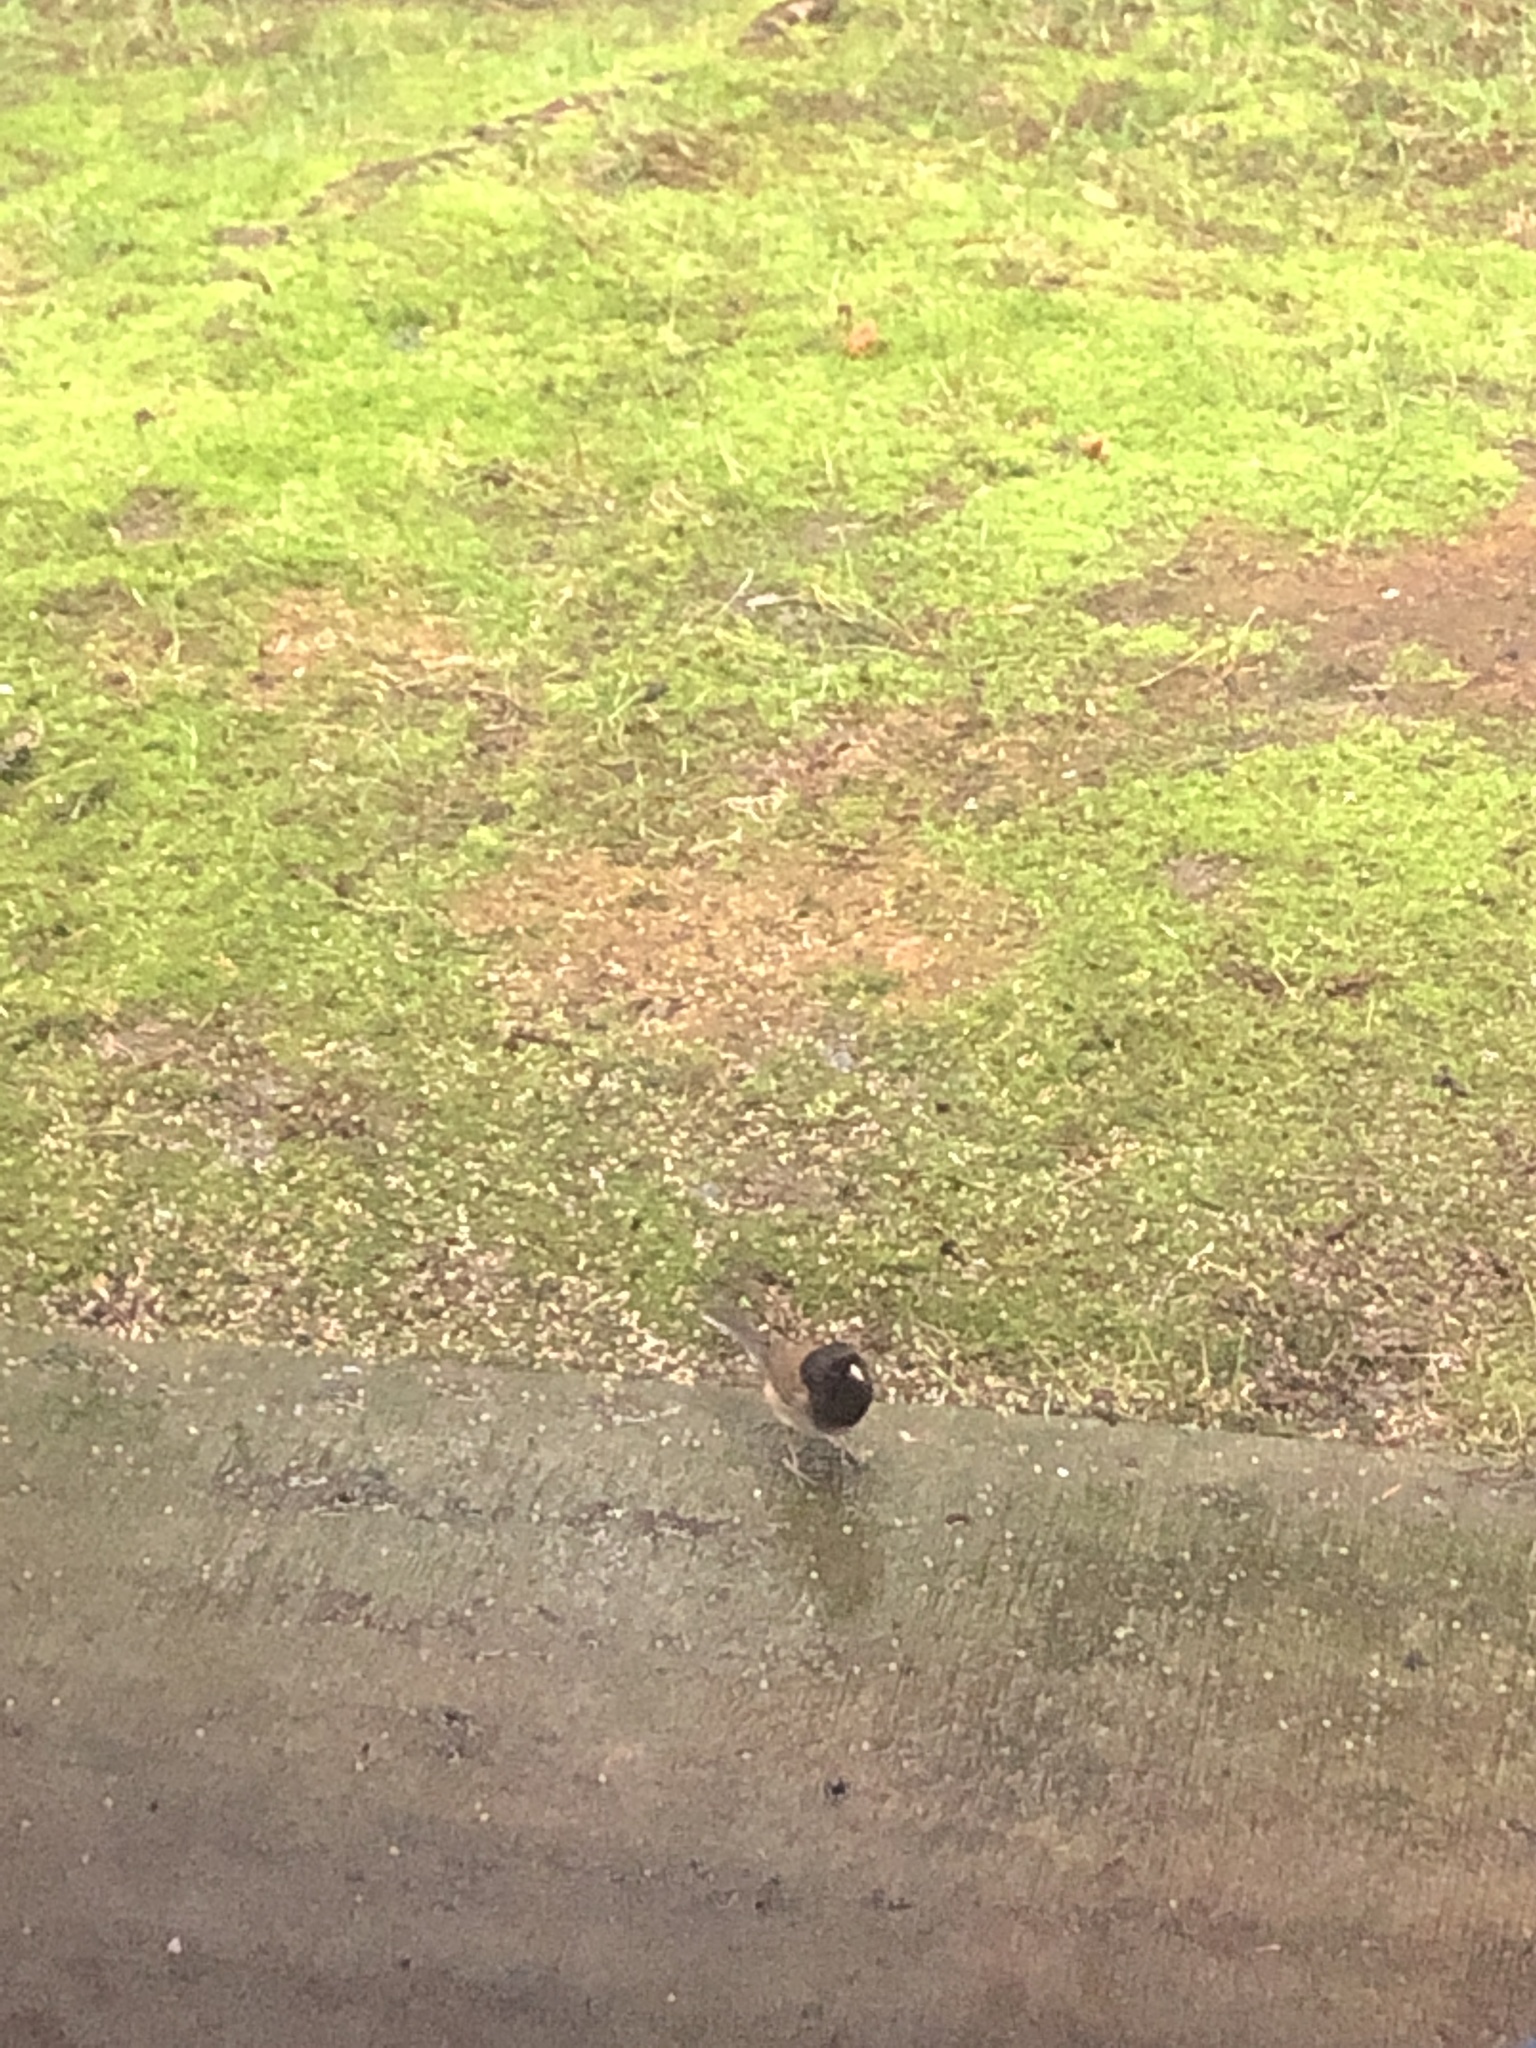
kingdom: Animalia
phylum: Chordata
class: Aves
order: Passeriformes
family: Passerellidae
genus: Junco
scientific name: Junco hyemalis
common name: Dark-eyed junco
